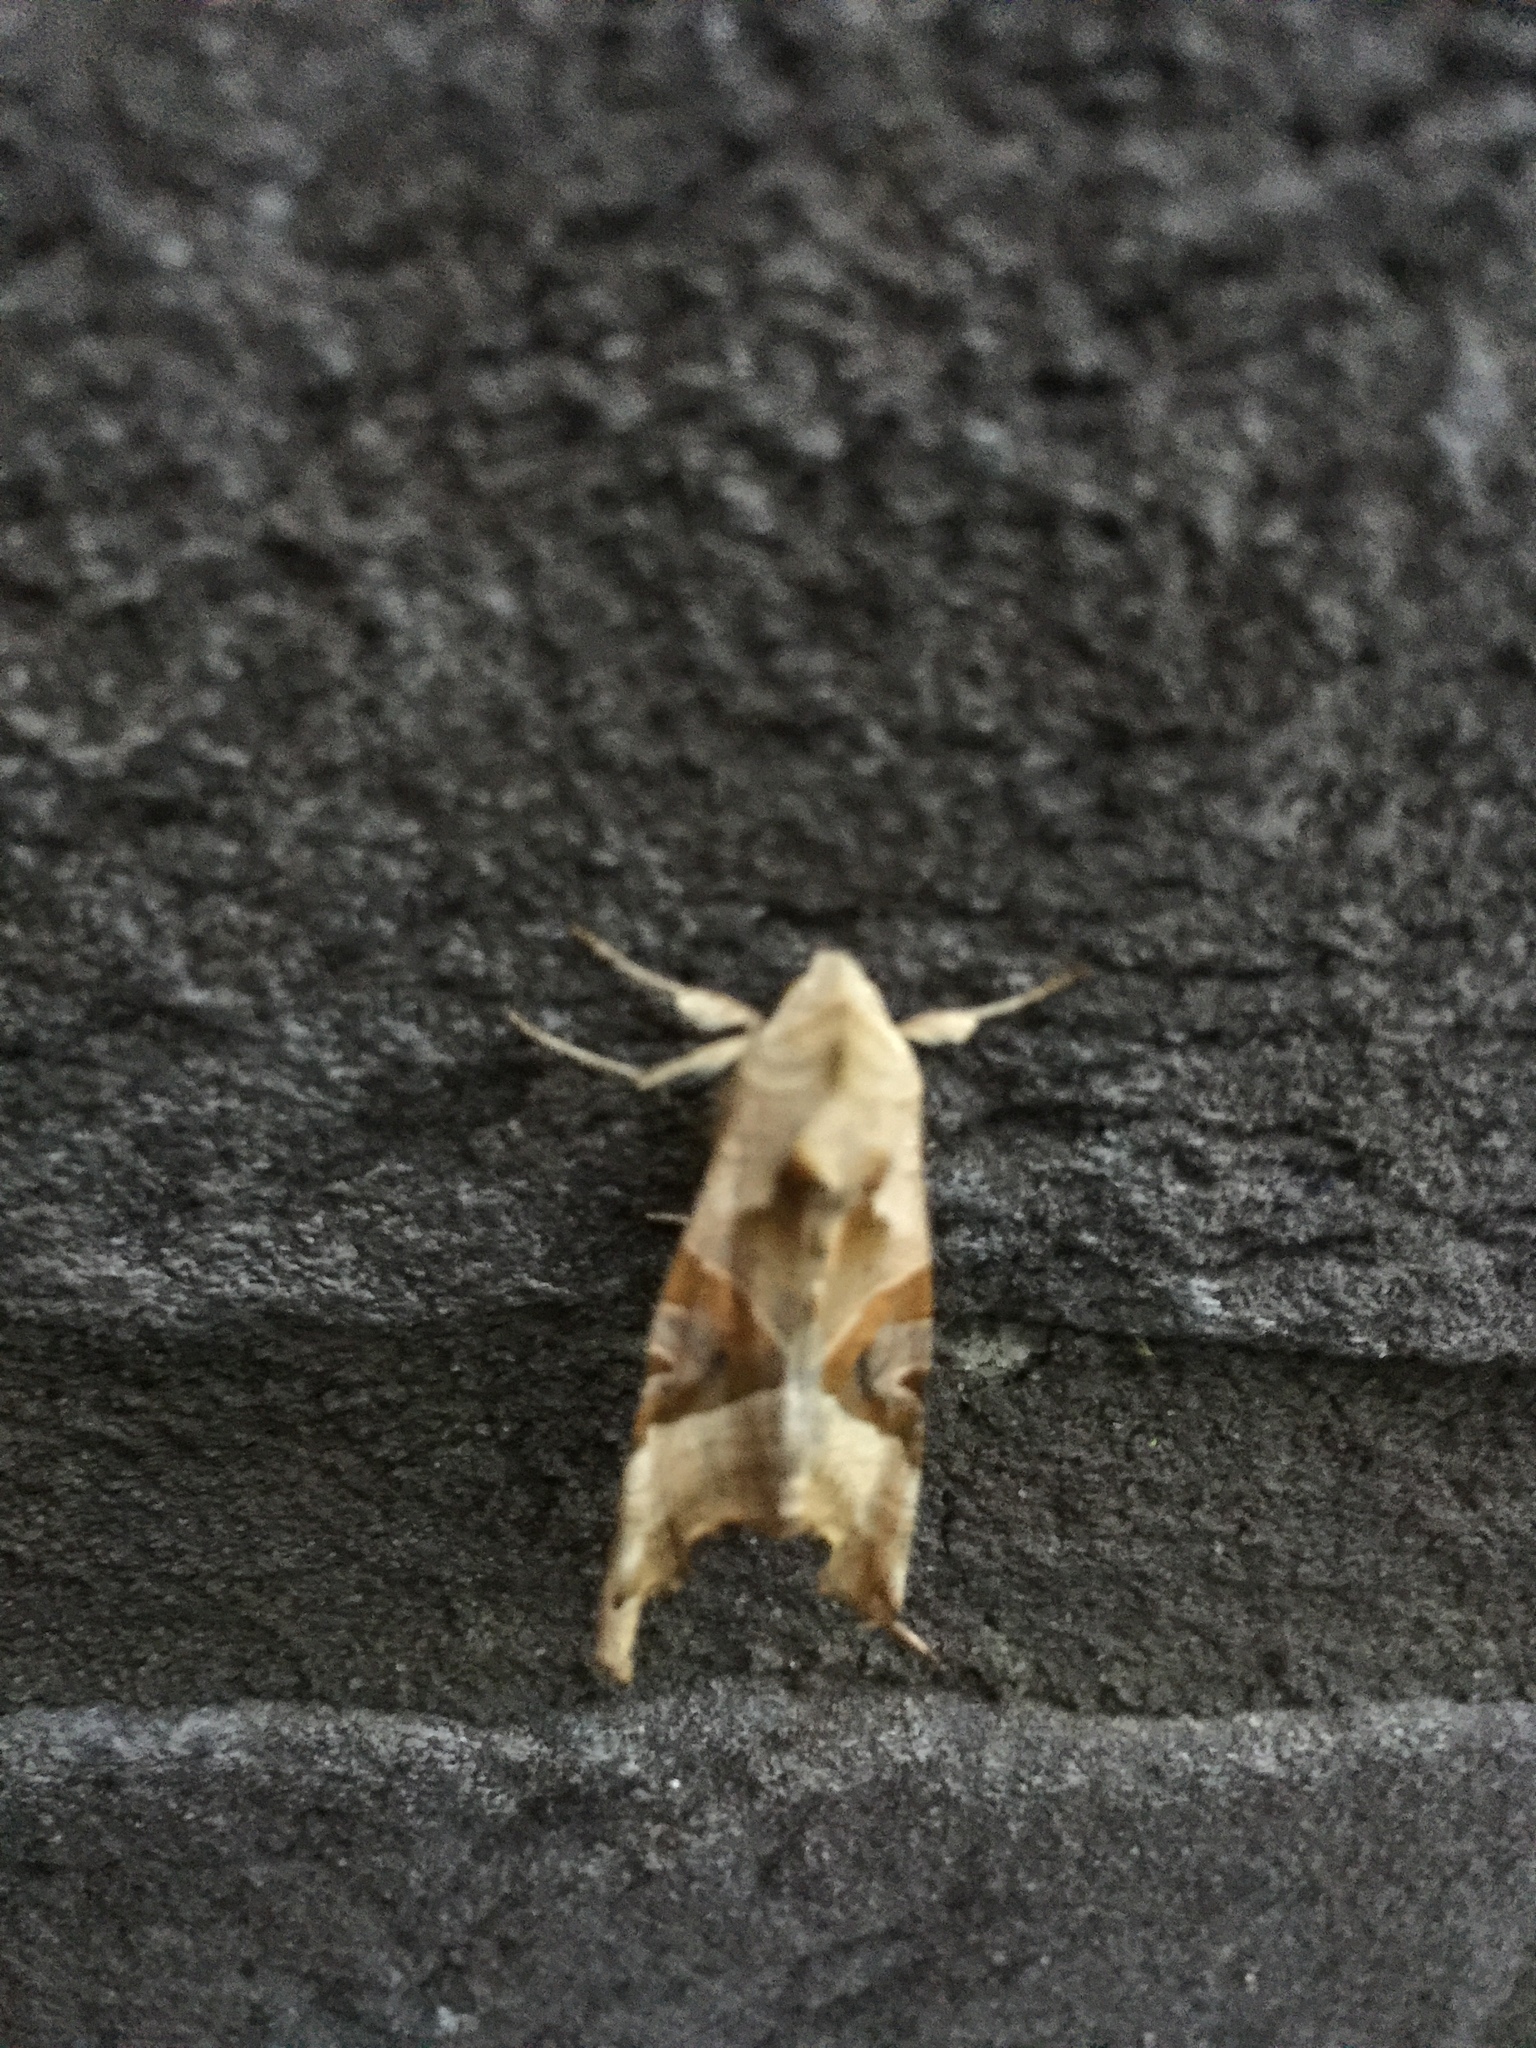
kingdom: Animalia
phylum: Arthropoda
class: Insecta
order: Lepidoptera
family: Noctuidae
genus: Phlogophora
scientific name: Phlogophora meticulosa
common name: Angle shades
